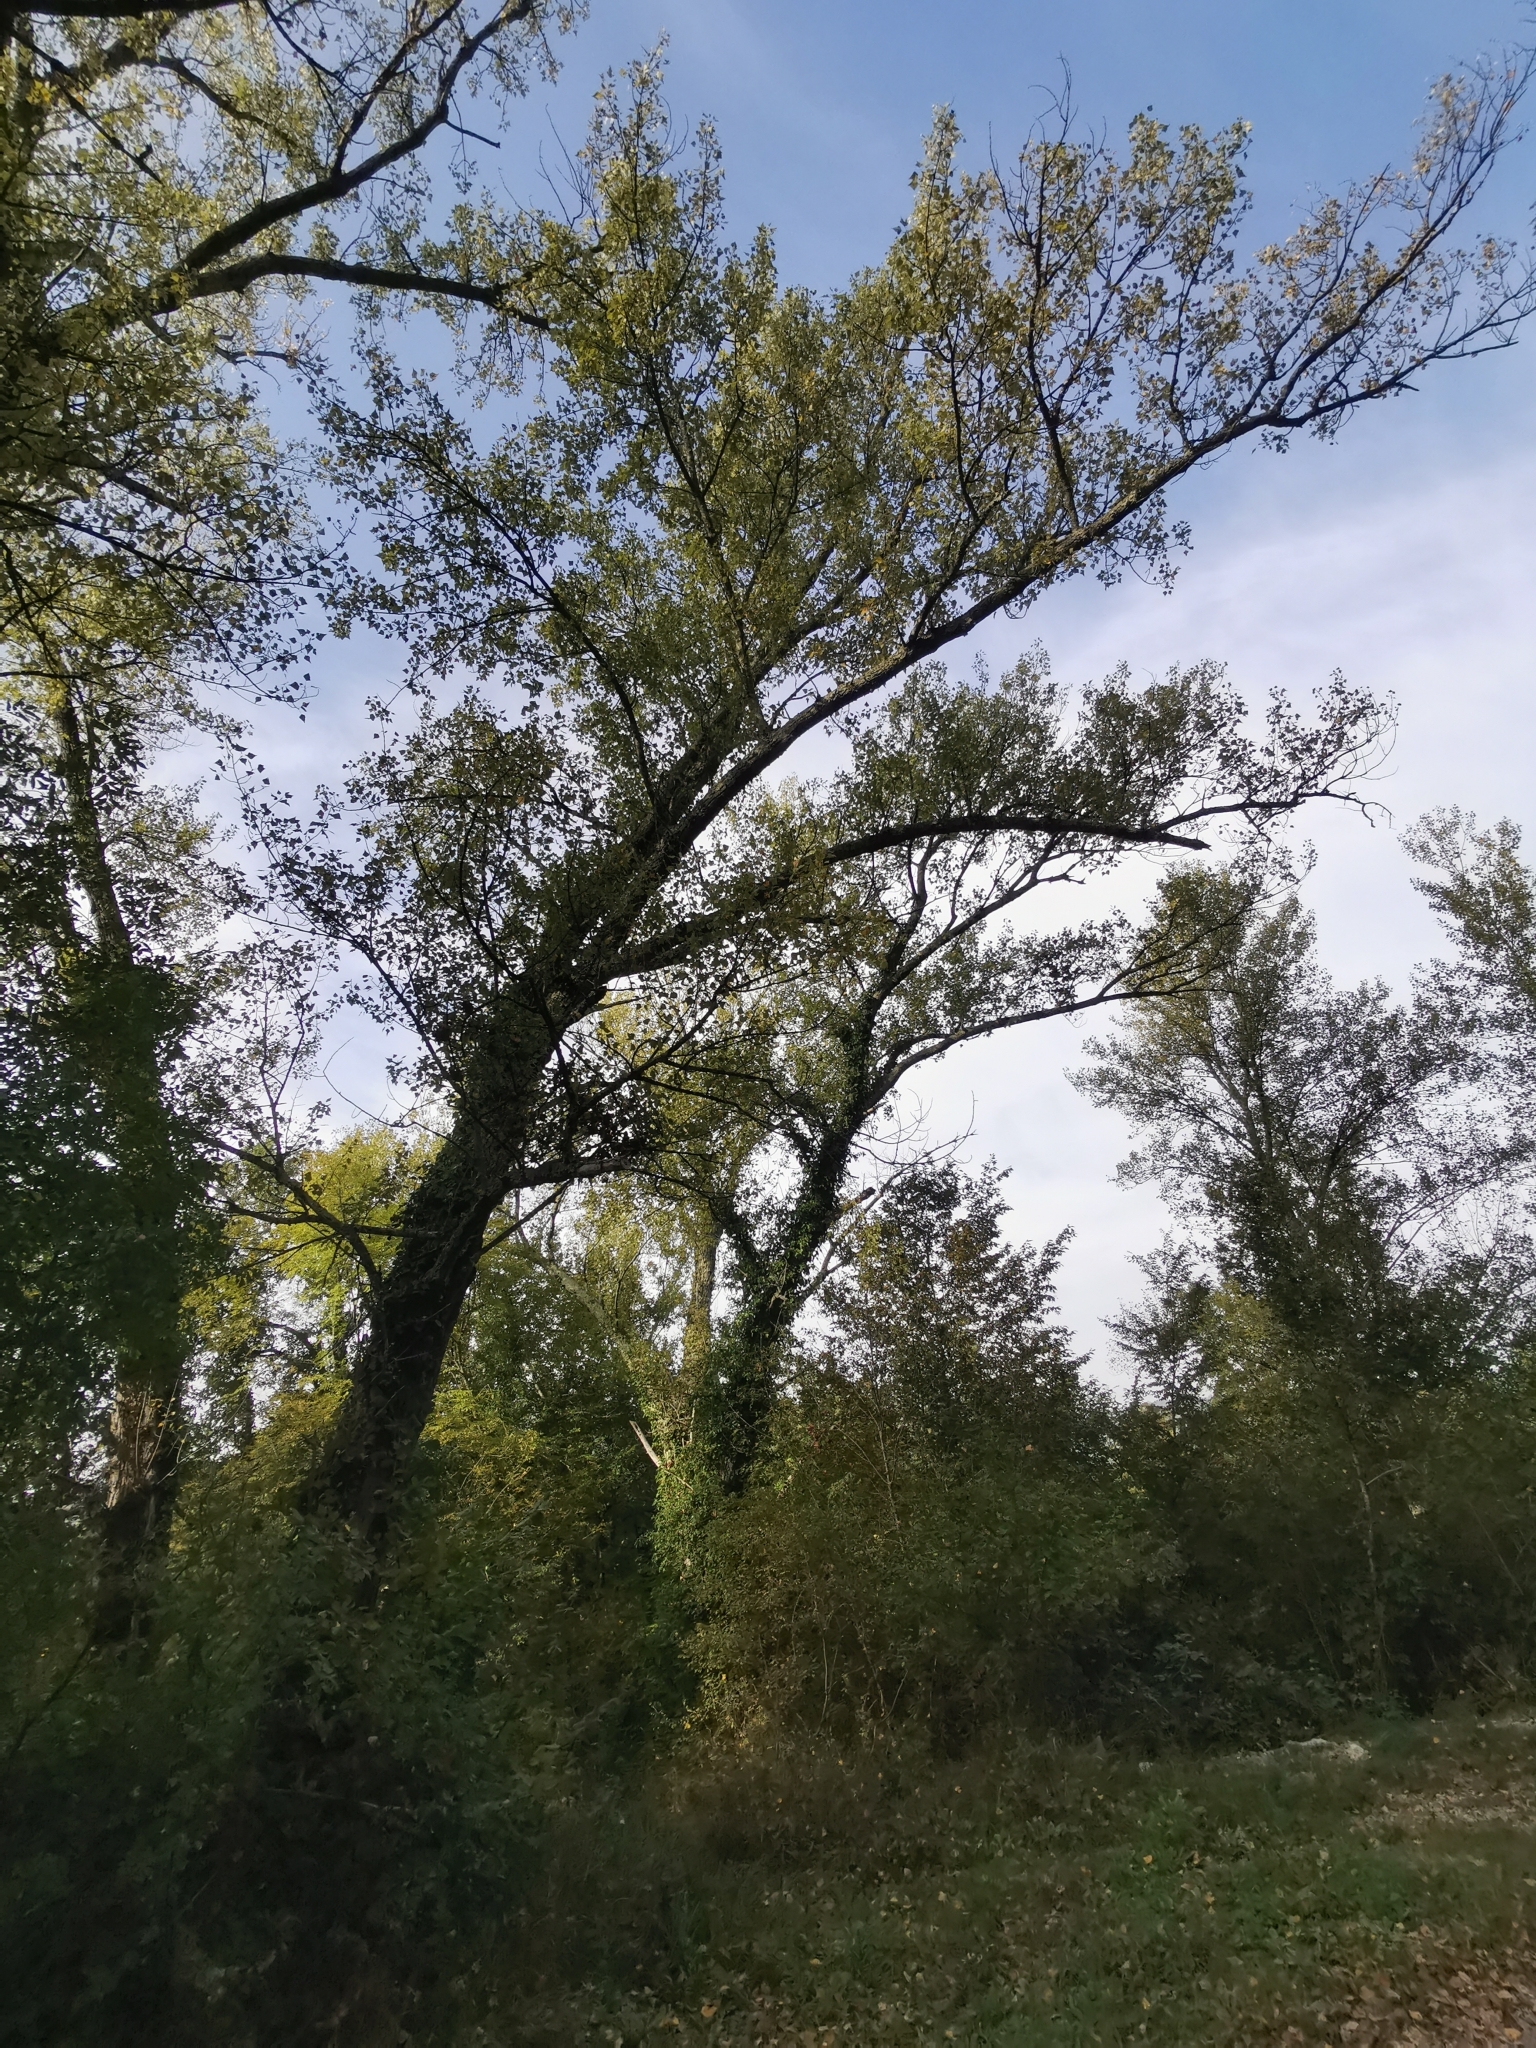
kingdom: Plantae
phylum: Tracheophyta
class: Magnoliopsida
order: Malpighiales
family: Salicaceae
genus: Populus
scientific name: Populus nigra
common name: Black poplar
